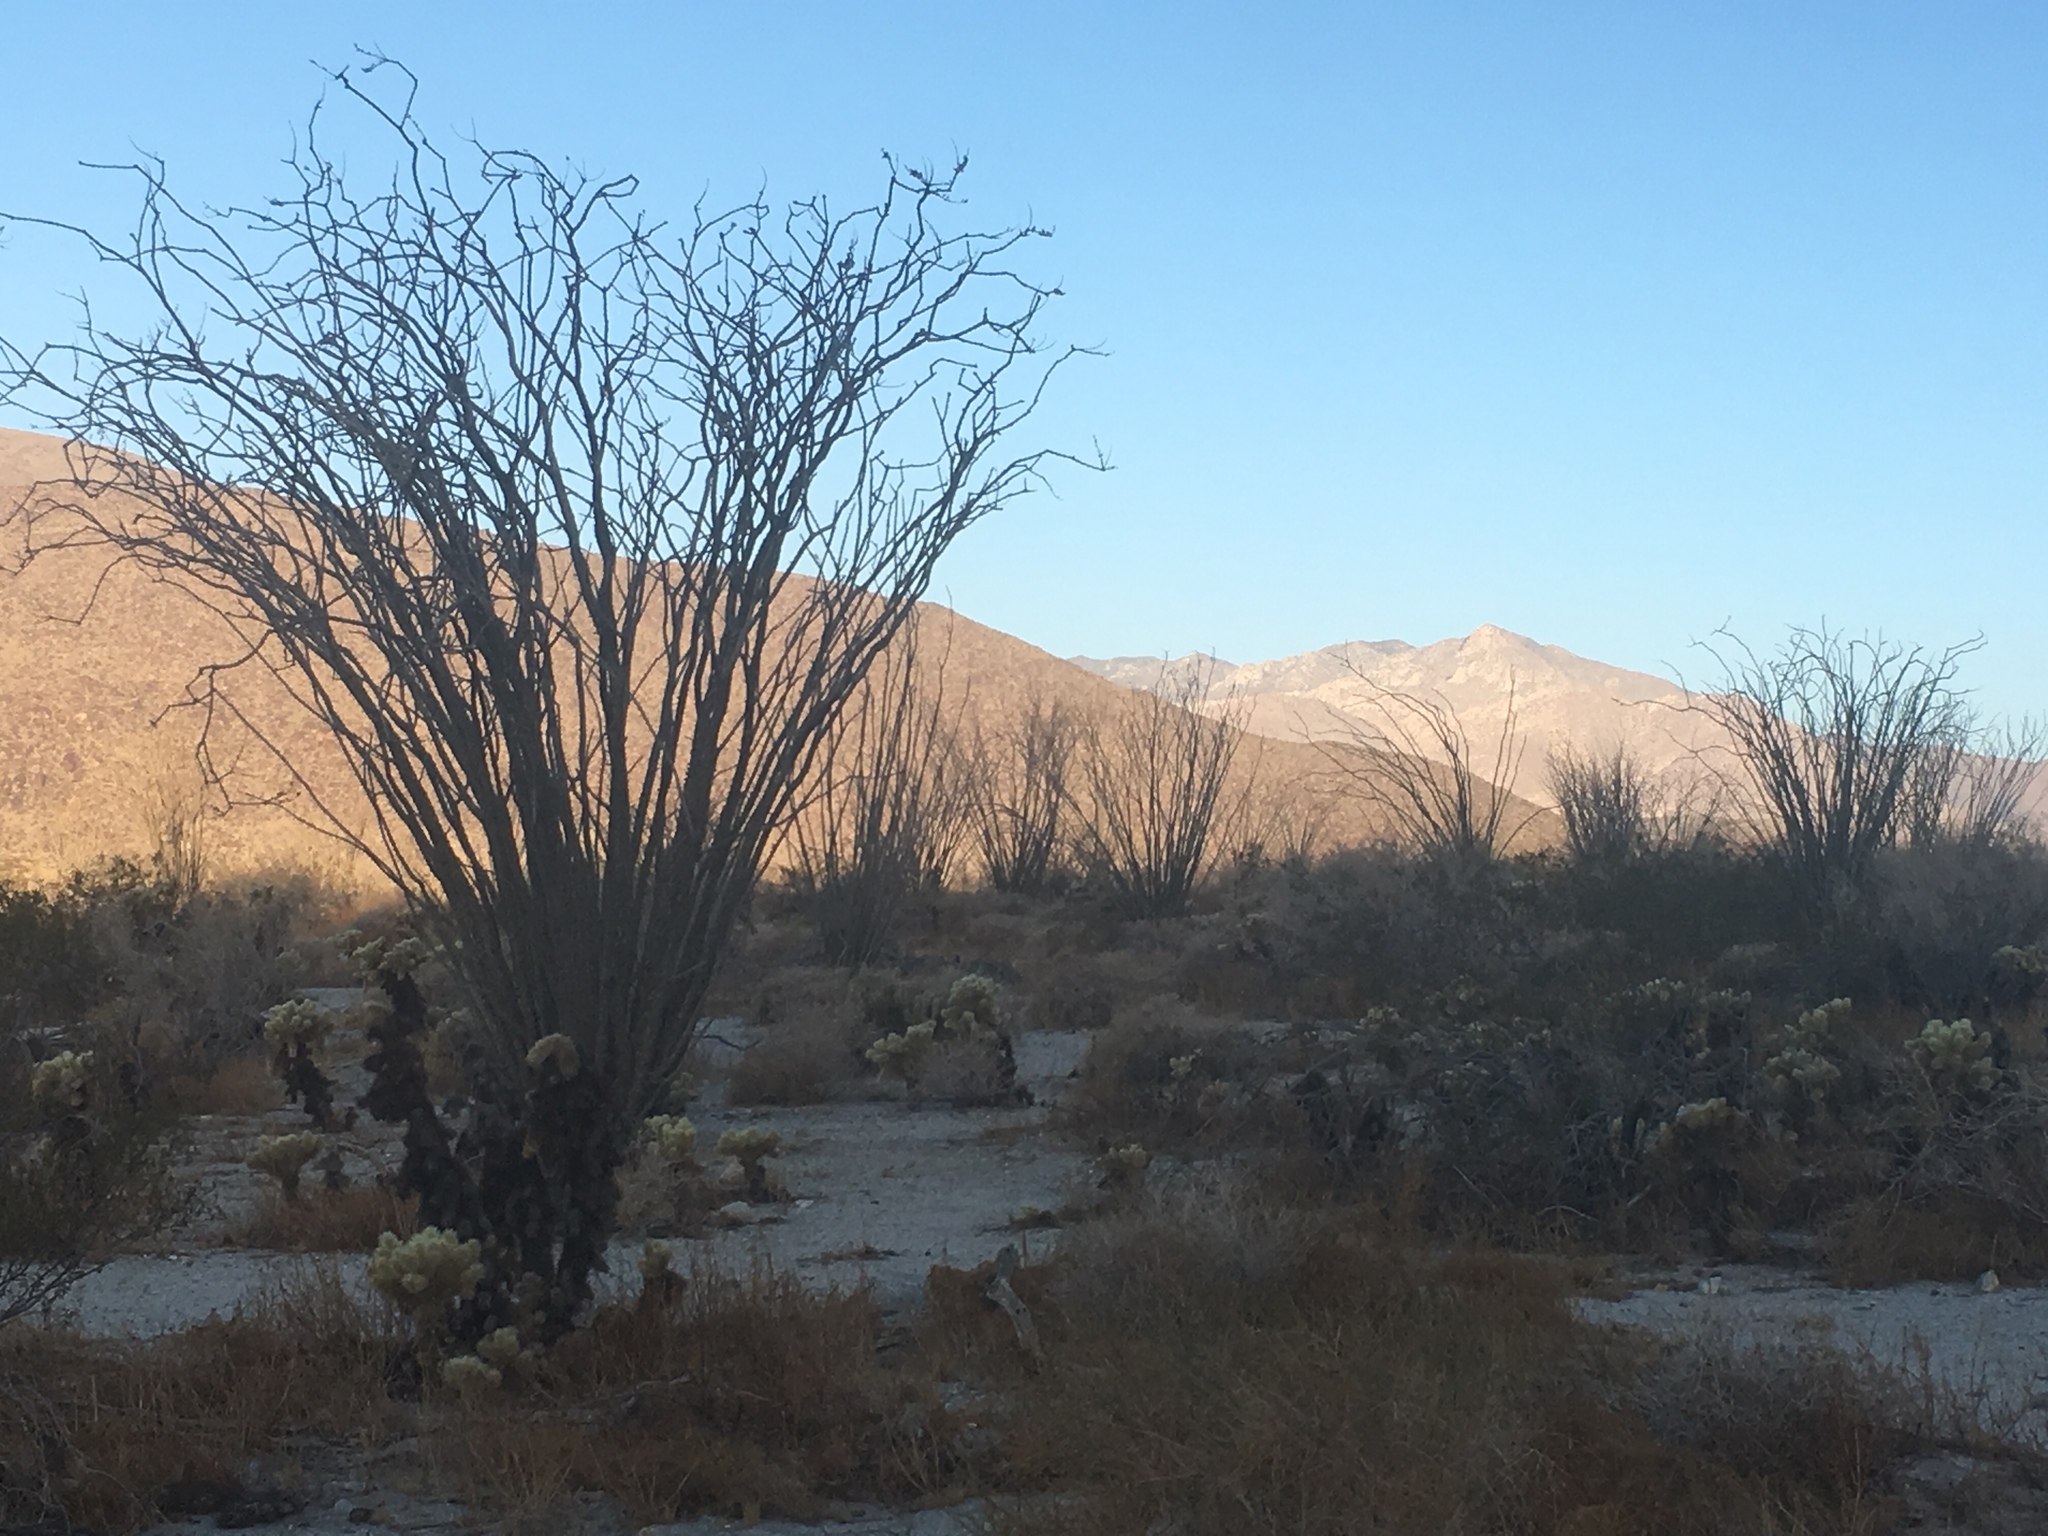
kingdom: Plantae
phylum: Tracheophyta
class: Magnoliopsida
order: Ericales
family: Fouquieriaceae
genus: Fouquieria
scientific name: Fouquieria splendens
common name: Vine-cactus
